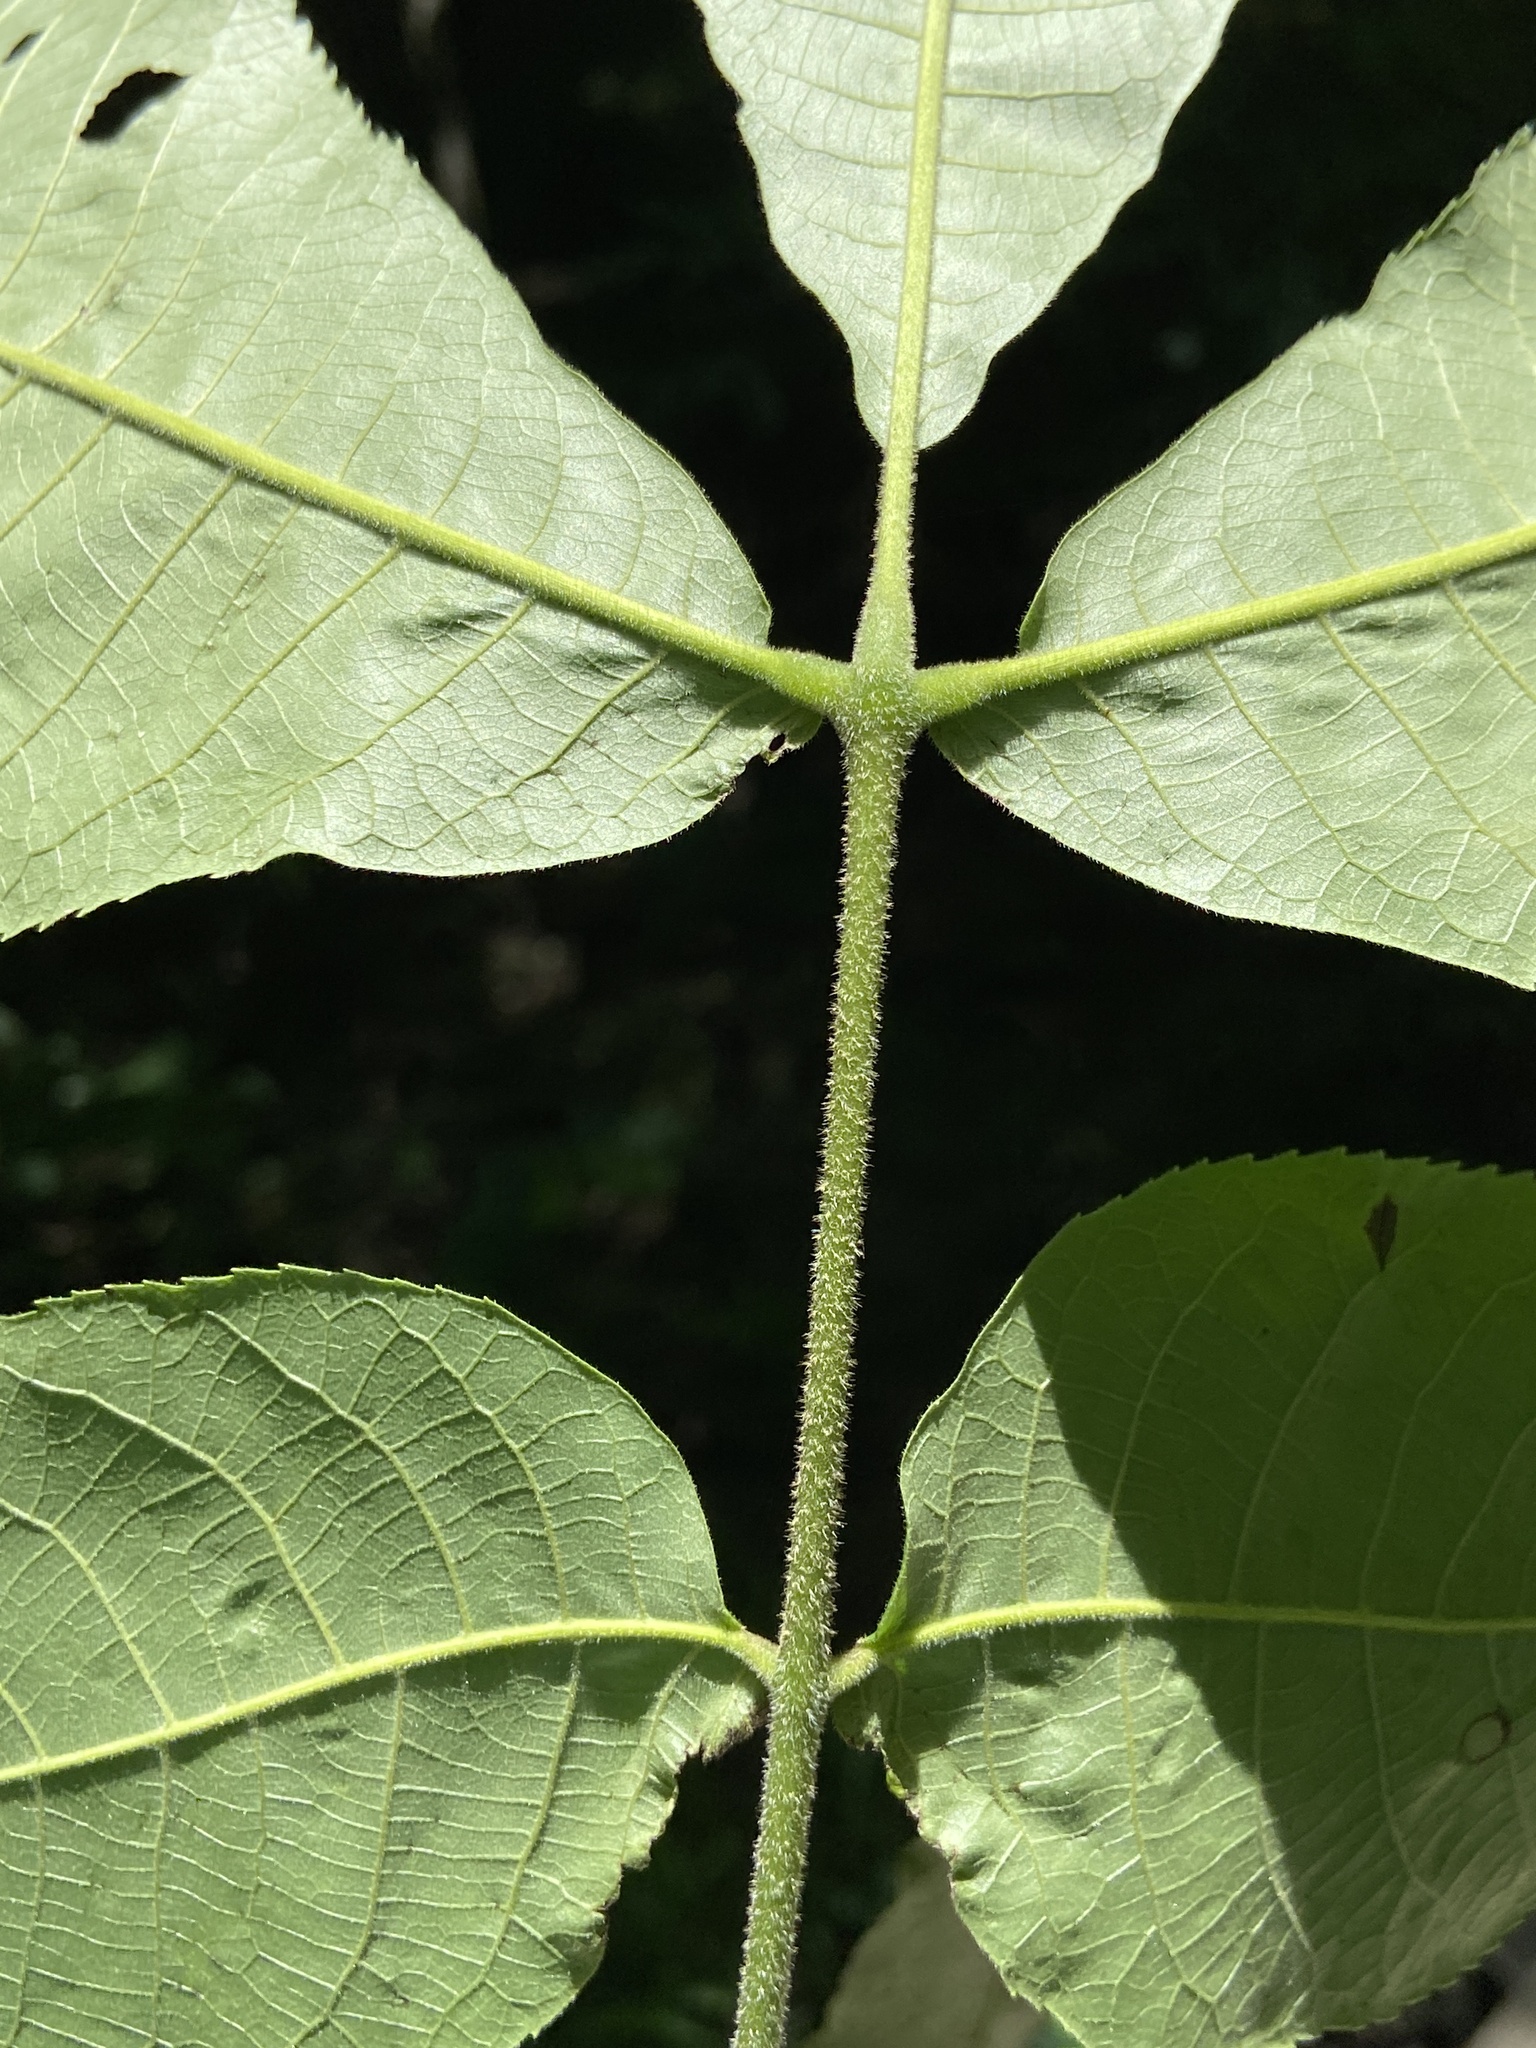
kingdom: Plantae
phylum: Tracheophyta
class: Magnoliopsida
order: Fagales
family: Juglandaceae
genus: Carya
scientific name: Carya laciniosa
